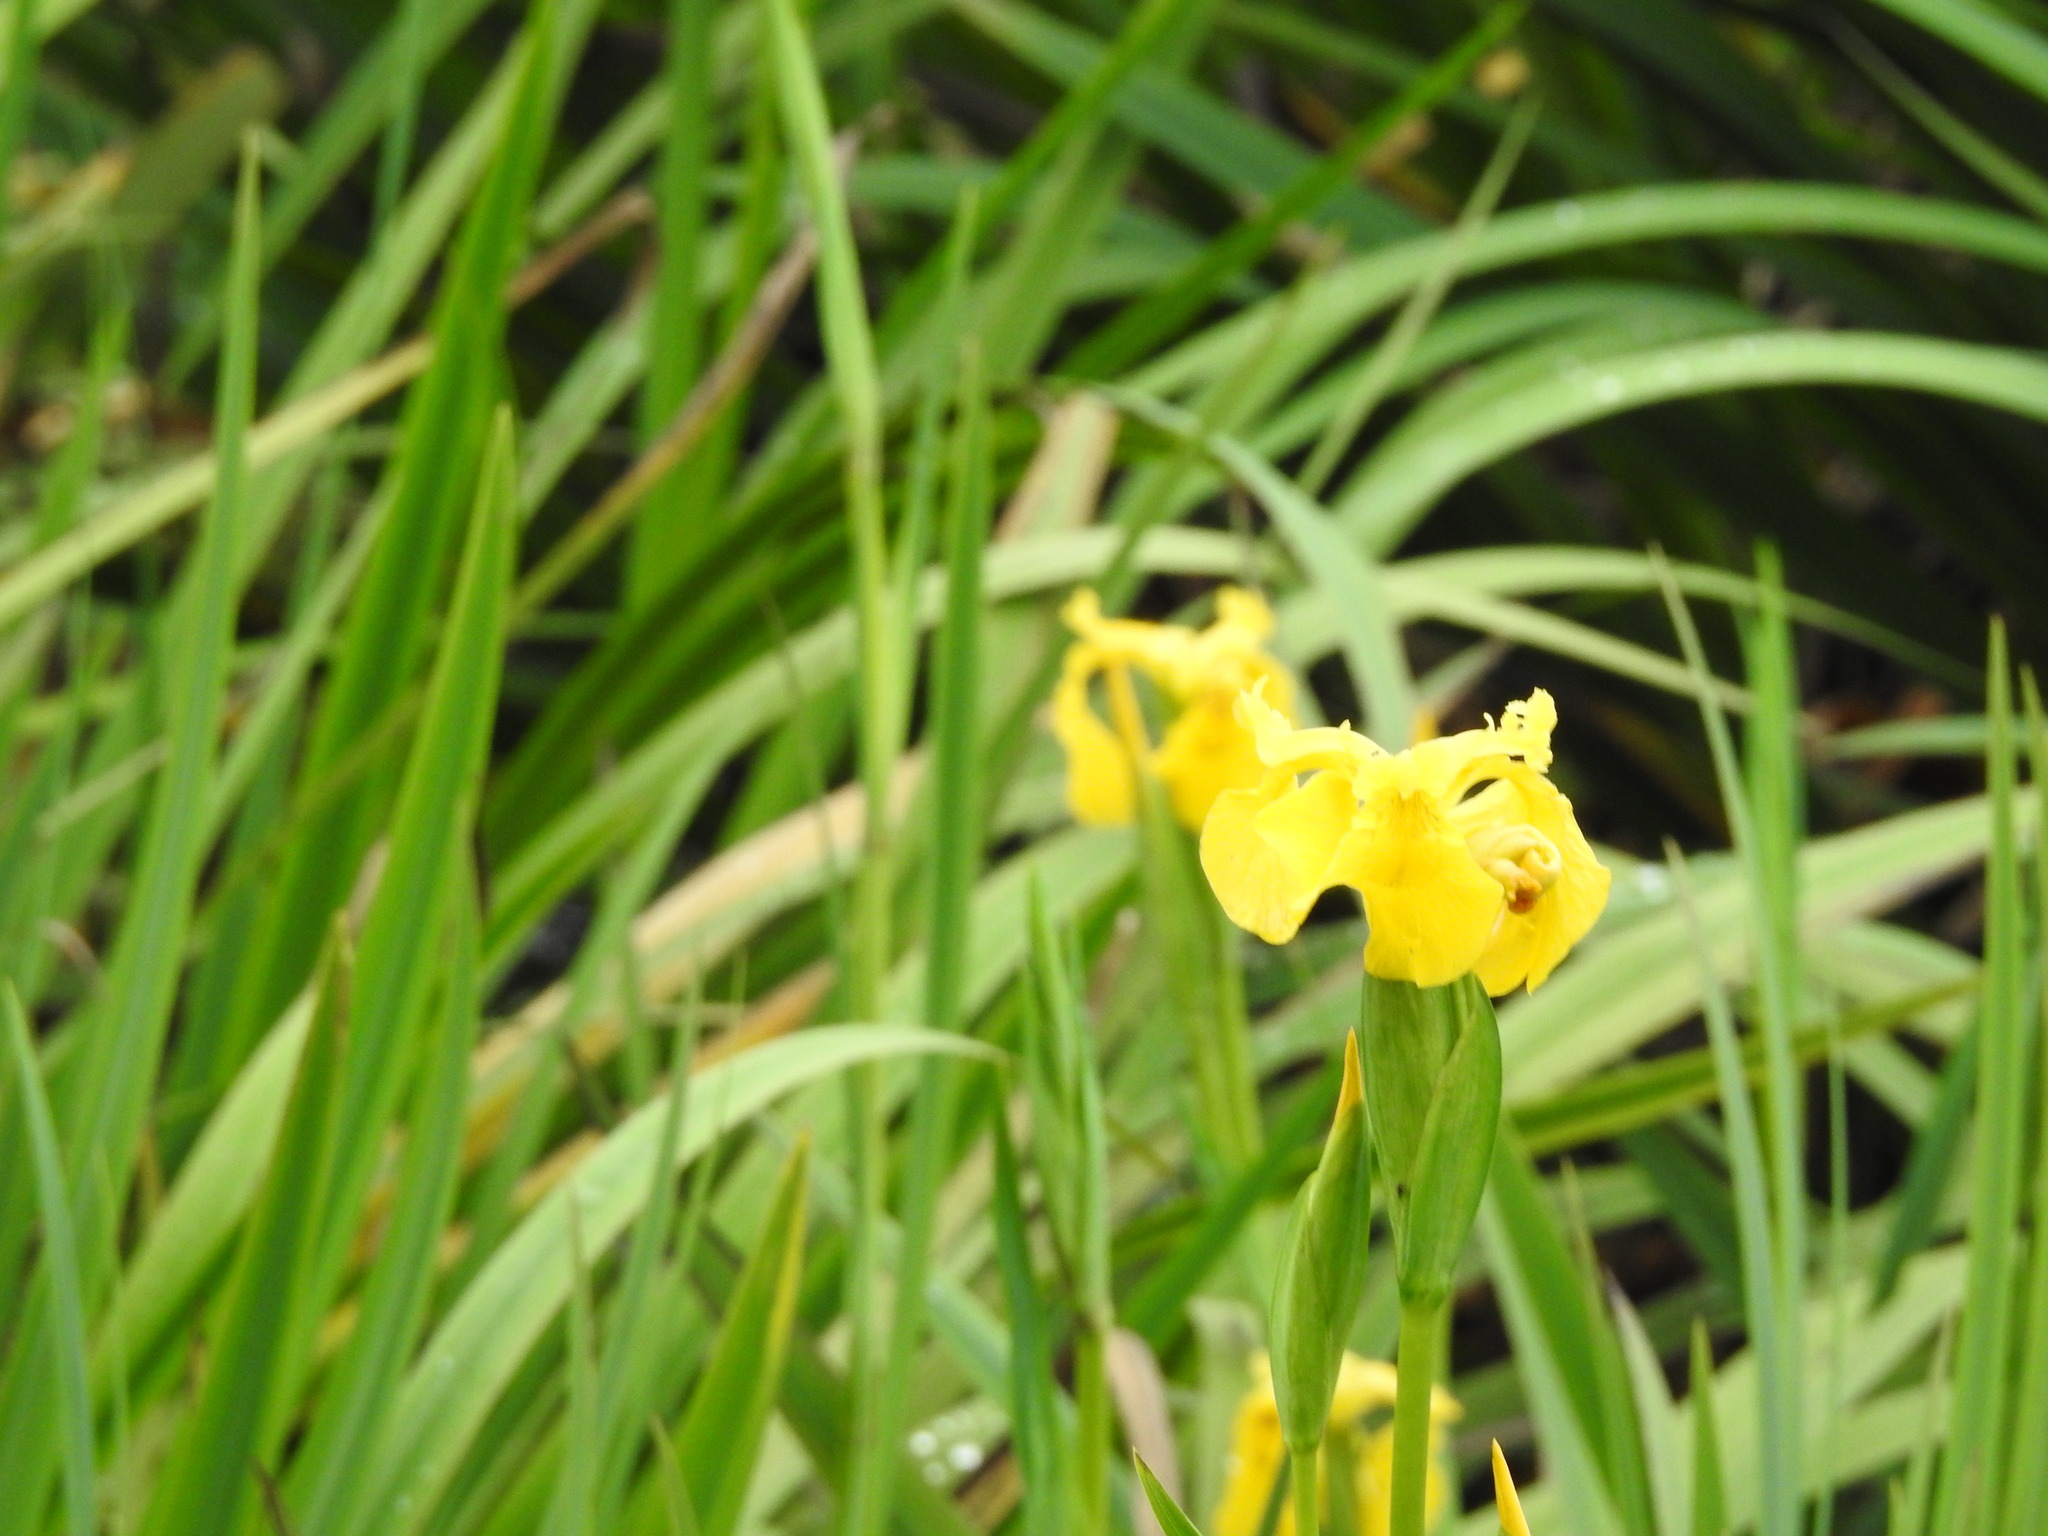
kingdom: Plantae
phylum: Tracheophyta
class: Liliopsida
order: Asparagales
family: Iridaceae
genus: Iris
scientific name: Iris pseudacorus
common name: Yellow flag
